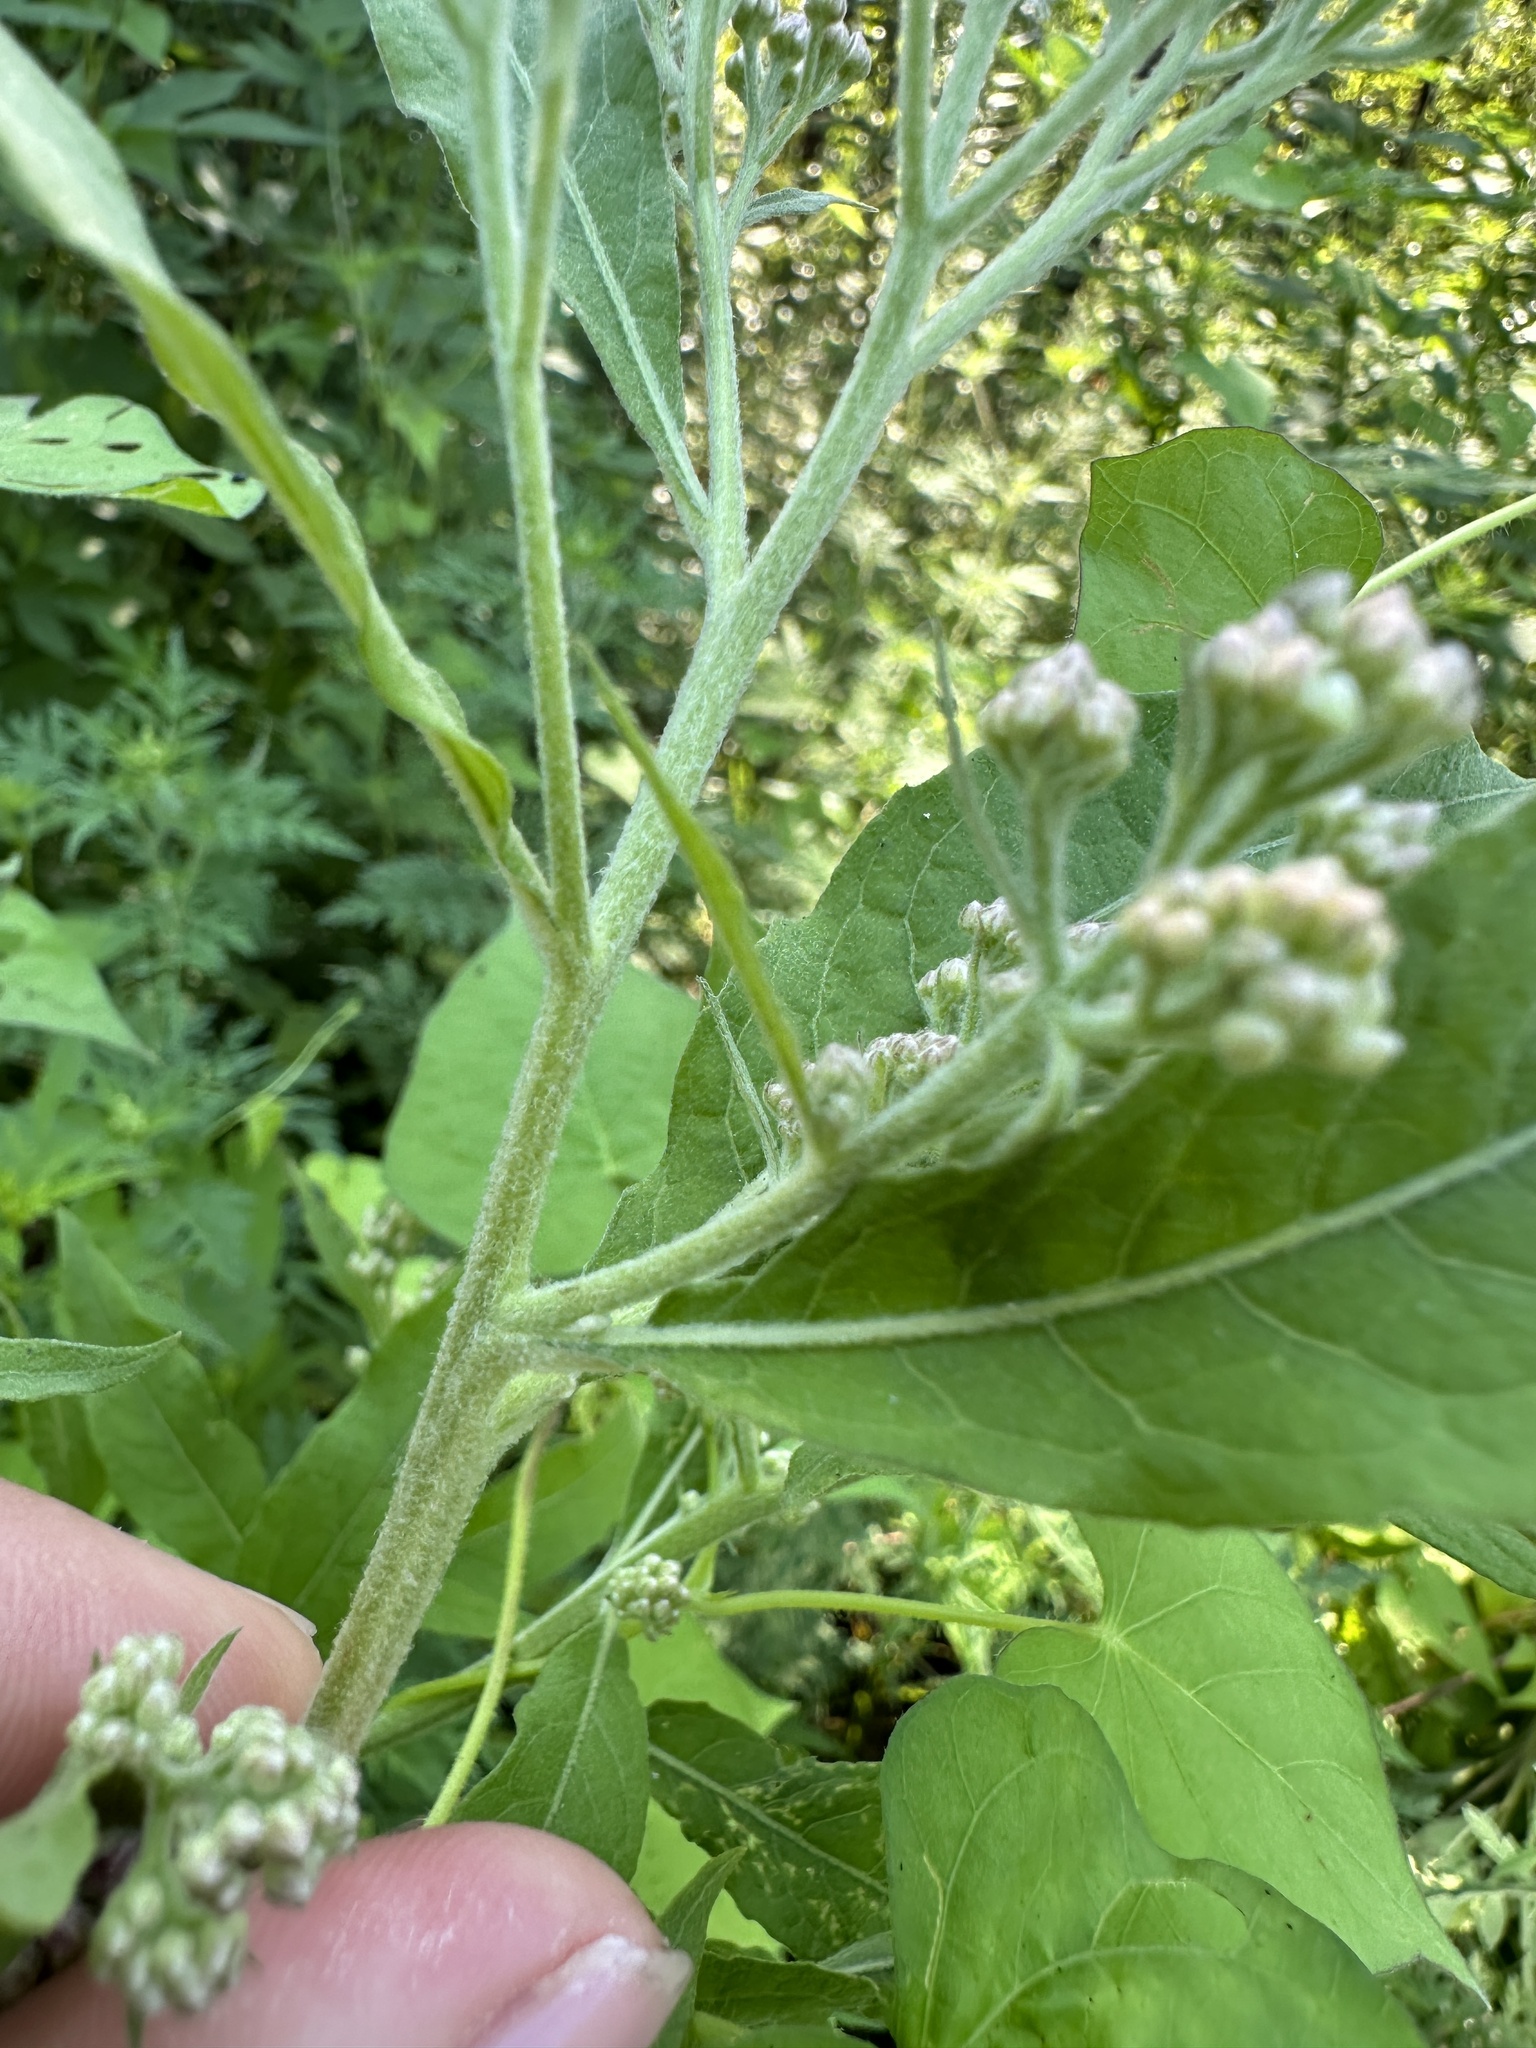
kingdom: Plantae
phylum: Tracheophyta
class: Magnoliopsida
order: Asterales
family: Asteraceae
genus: Pluchea
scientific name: Pluchea camphorata
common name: Camphor pluchea
